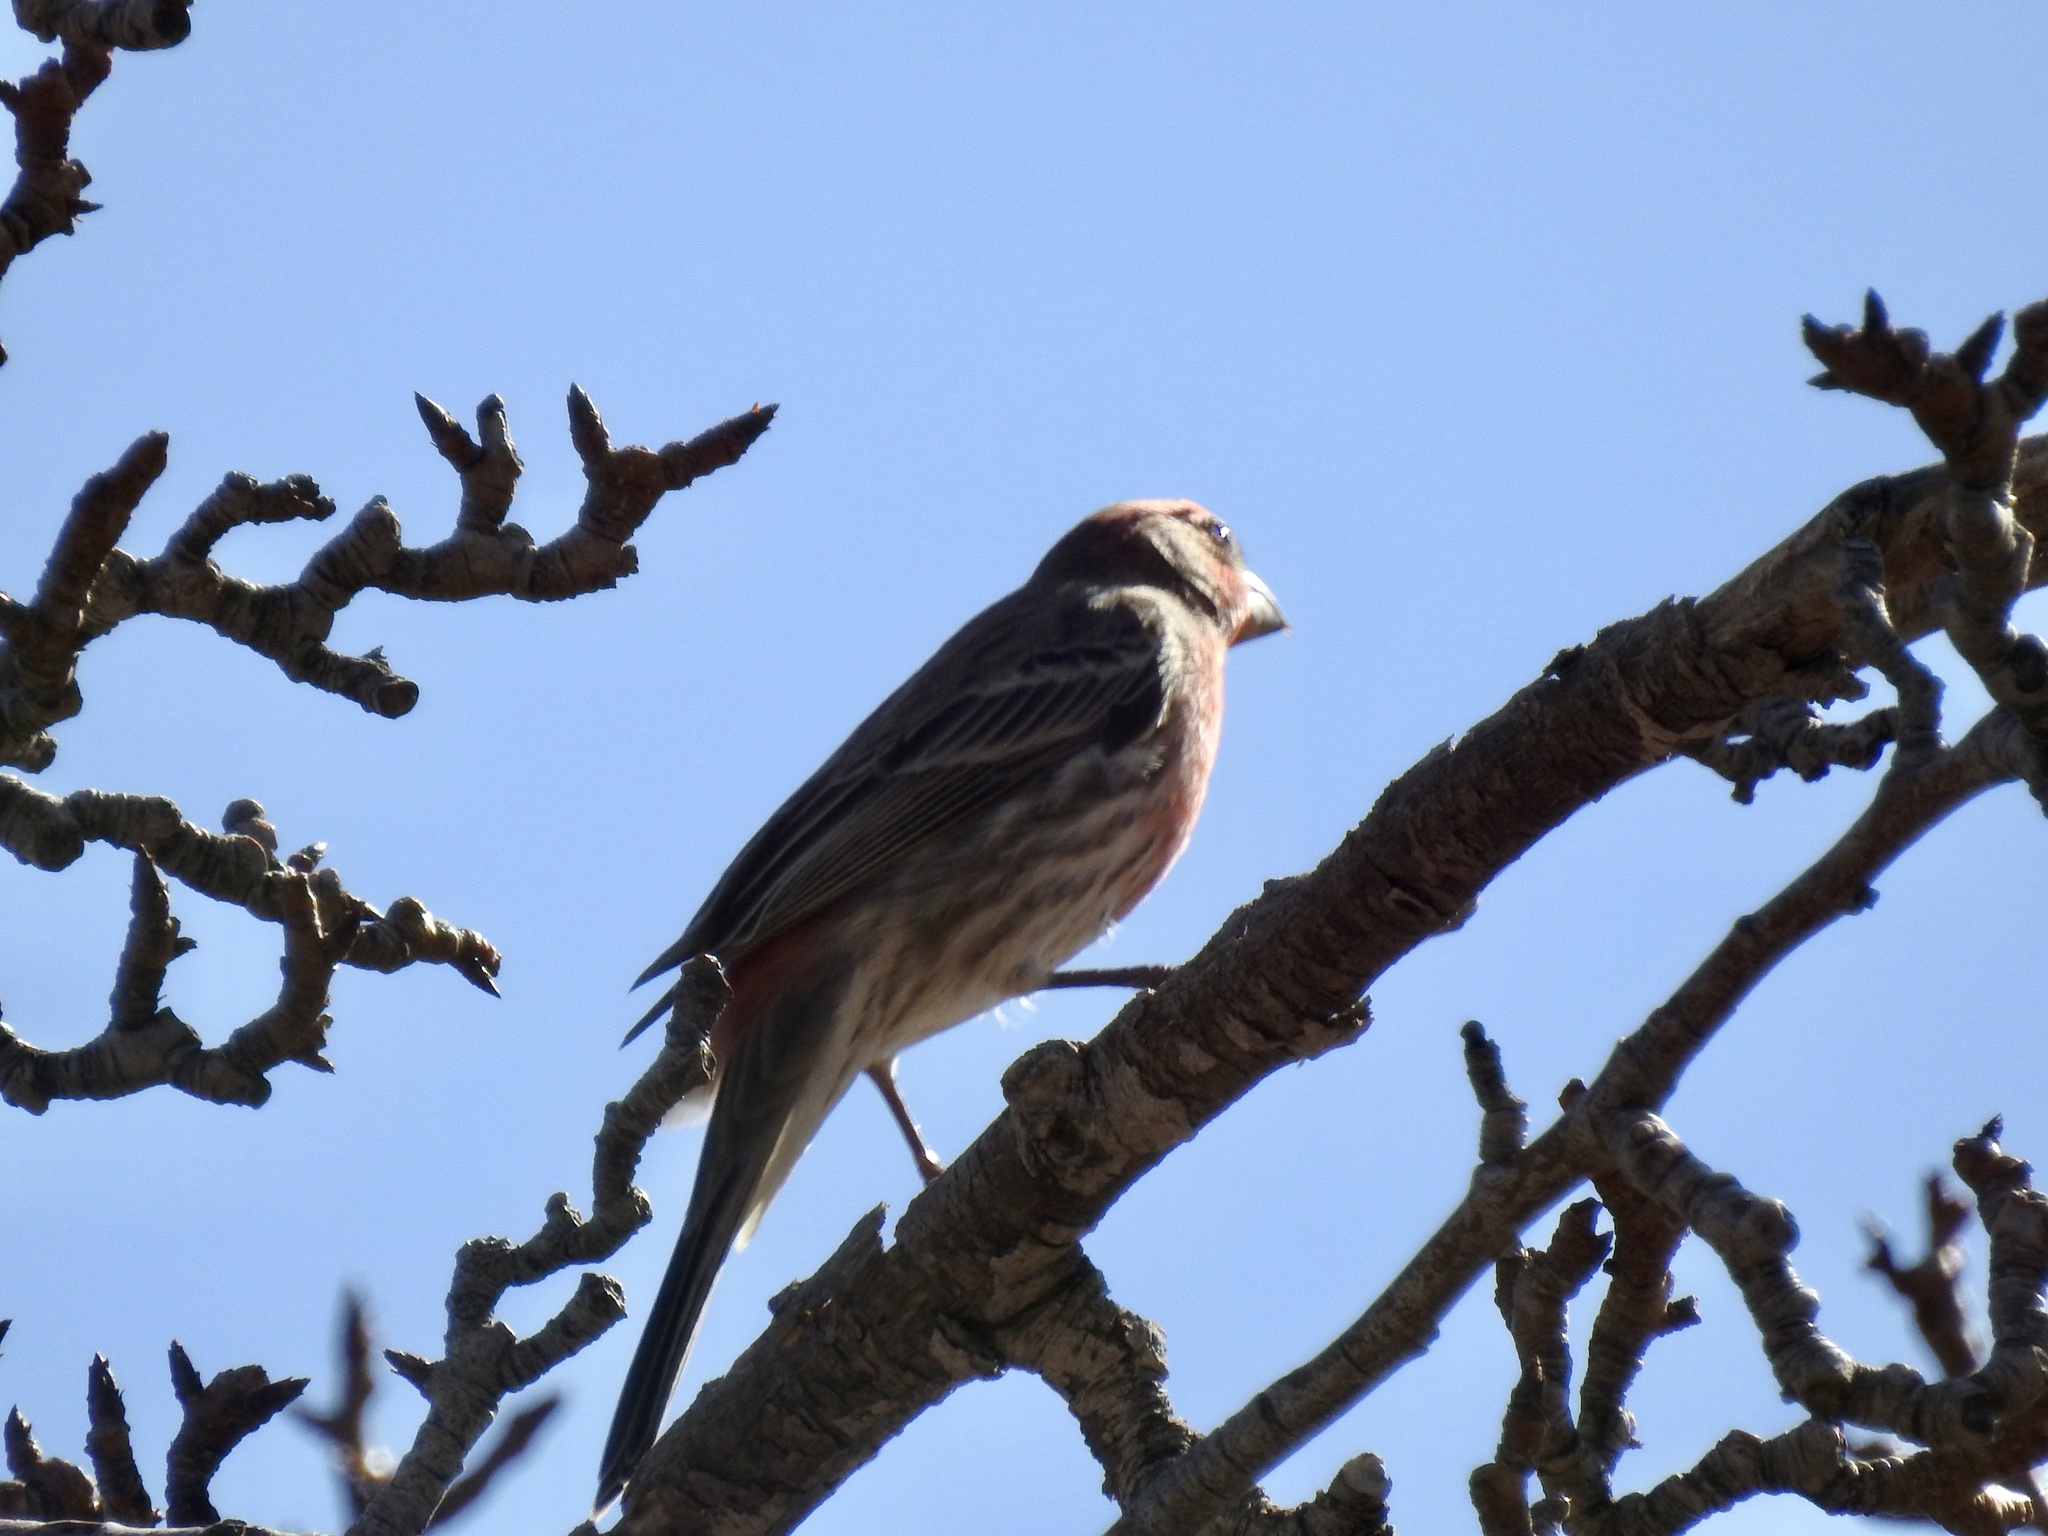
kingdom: Animalia
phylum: Chordata
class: Aves
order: Passeriformes
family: Fringillidae
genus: Haemorhous
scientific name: Haemorhous mexicanus
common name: House finch
